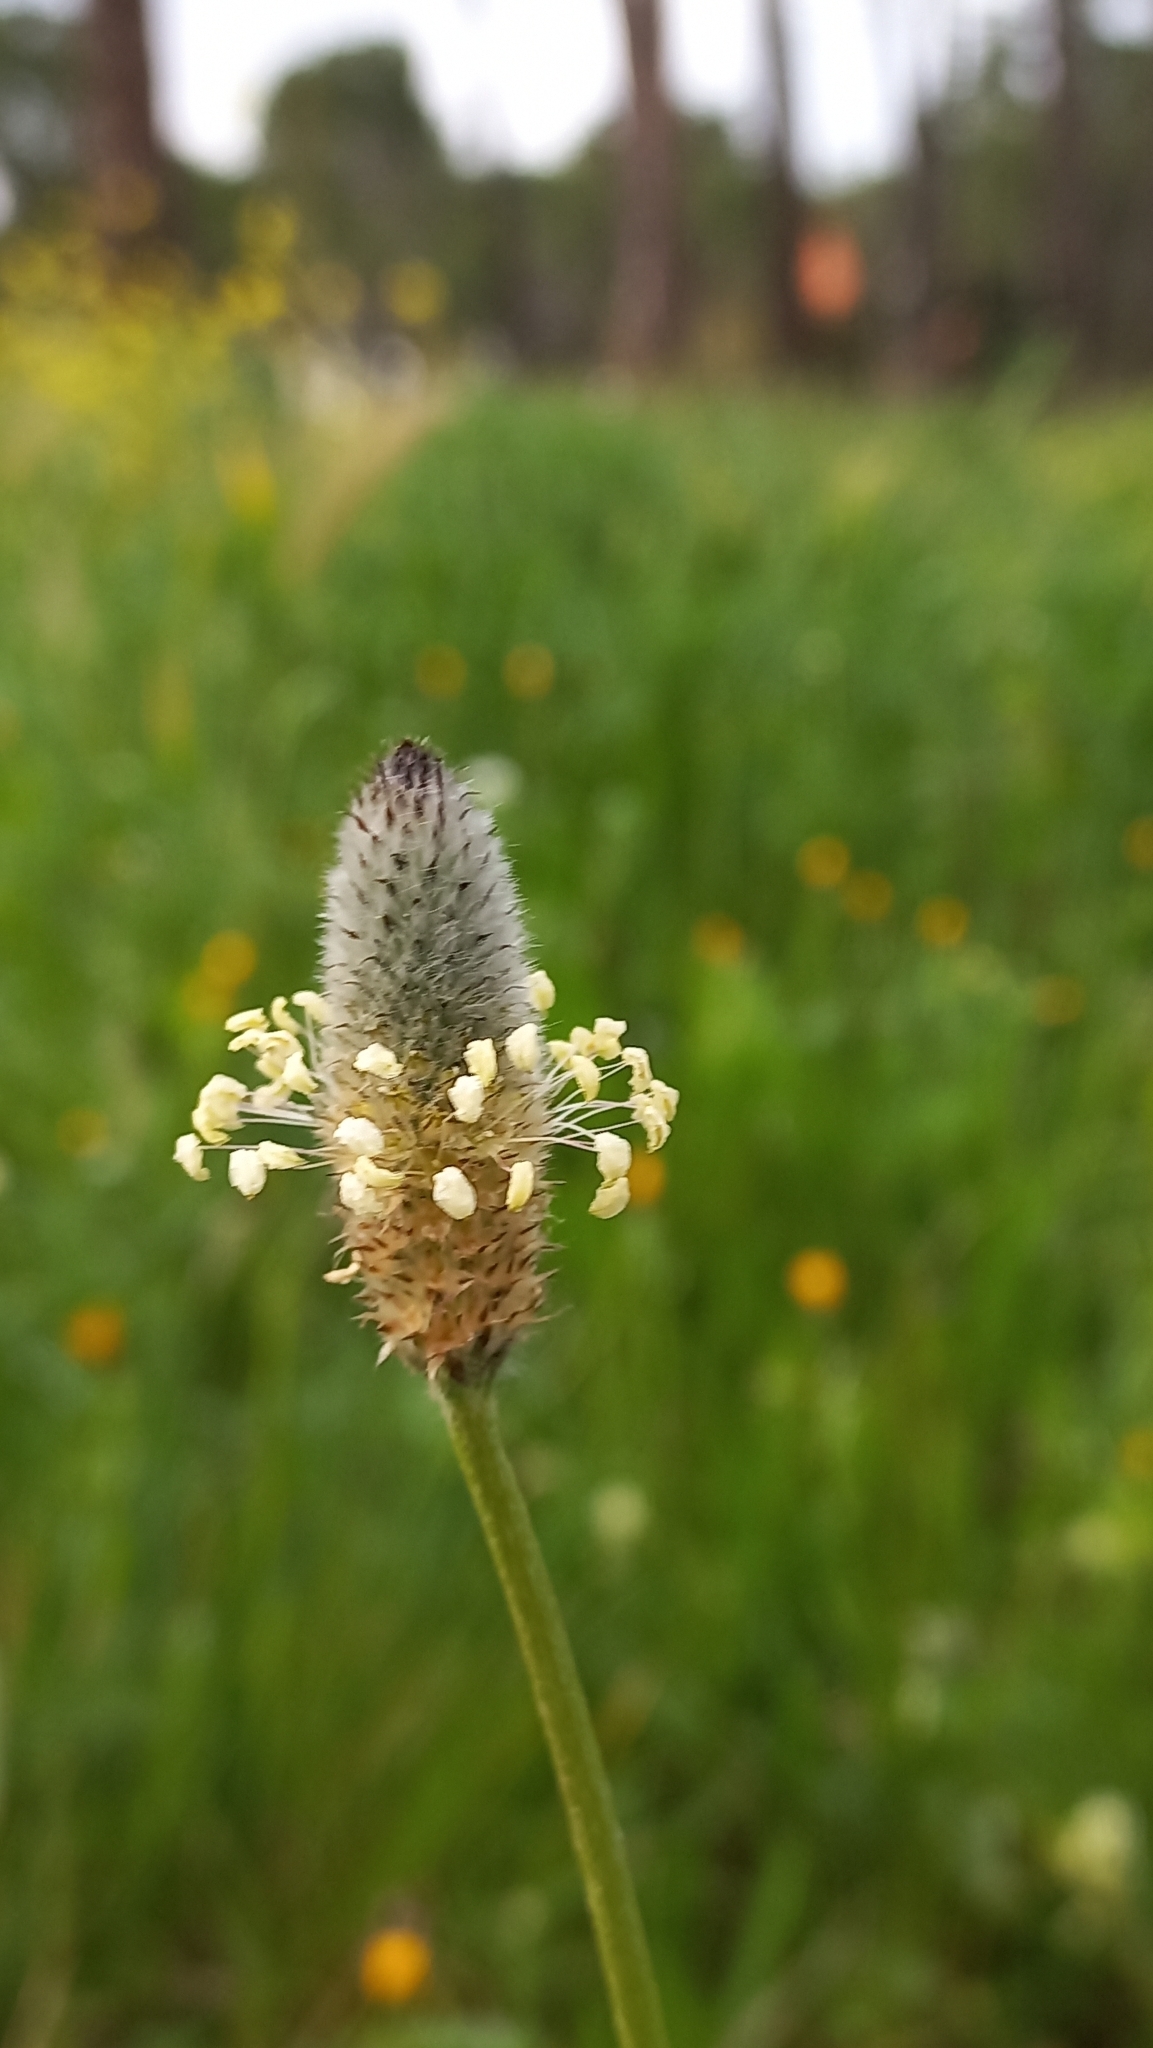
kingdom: Plantae
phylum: Tracheophyta
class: Magnoliopsida
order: Lamiales
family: Plantaginaceae
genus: Plantago
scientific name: Plantago lagopus
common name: Hare-foot plantain
